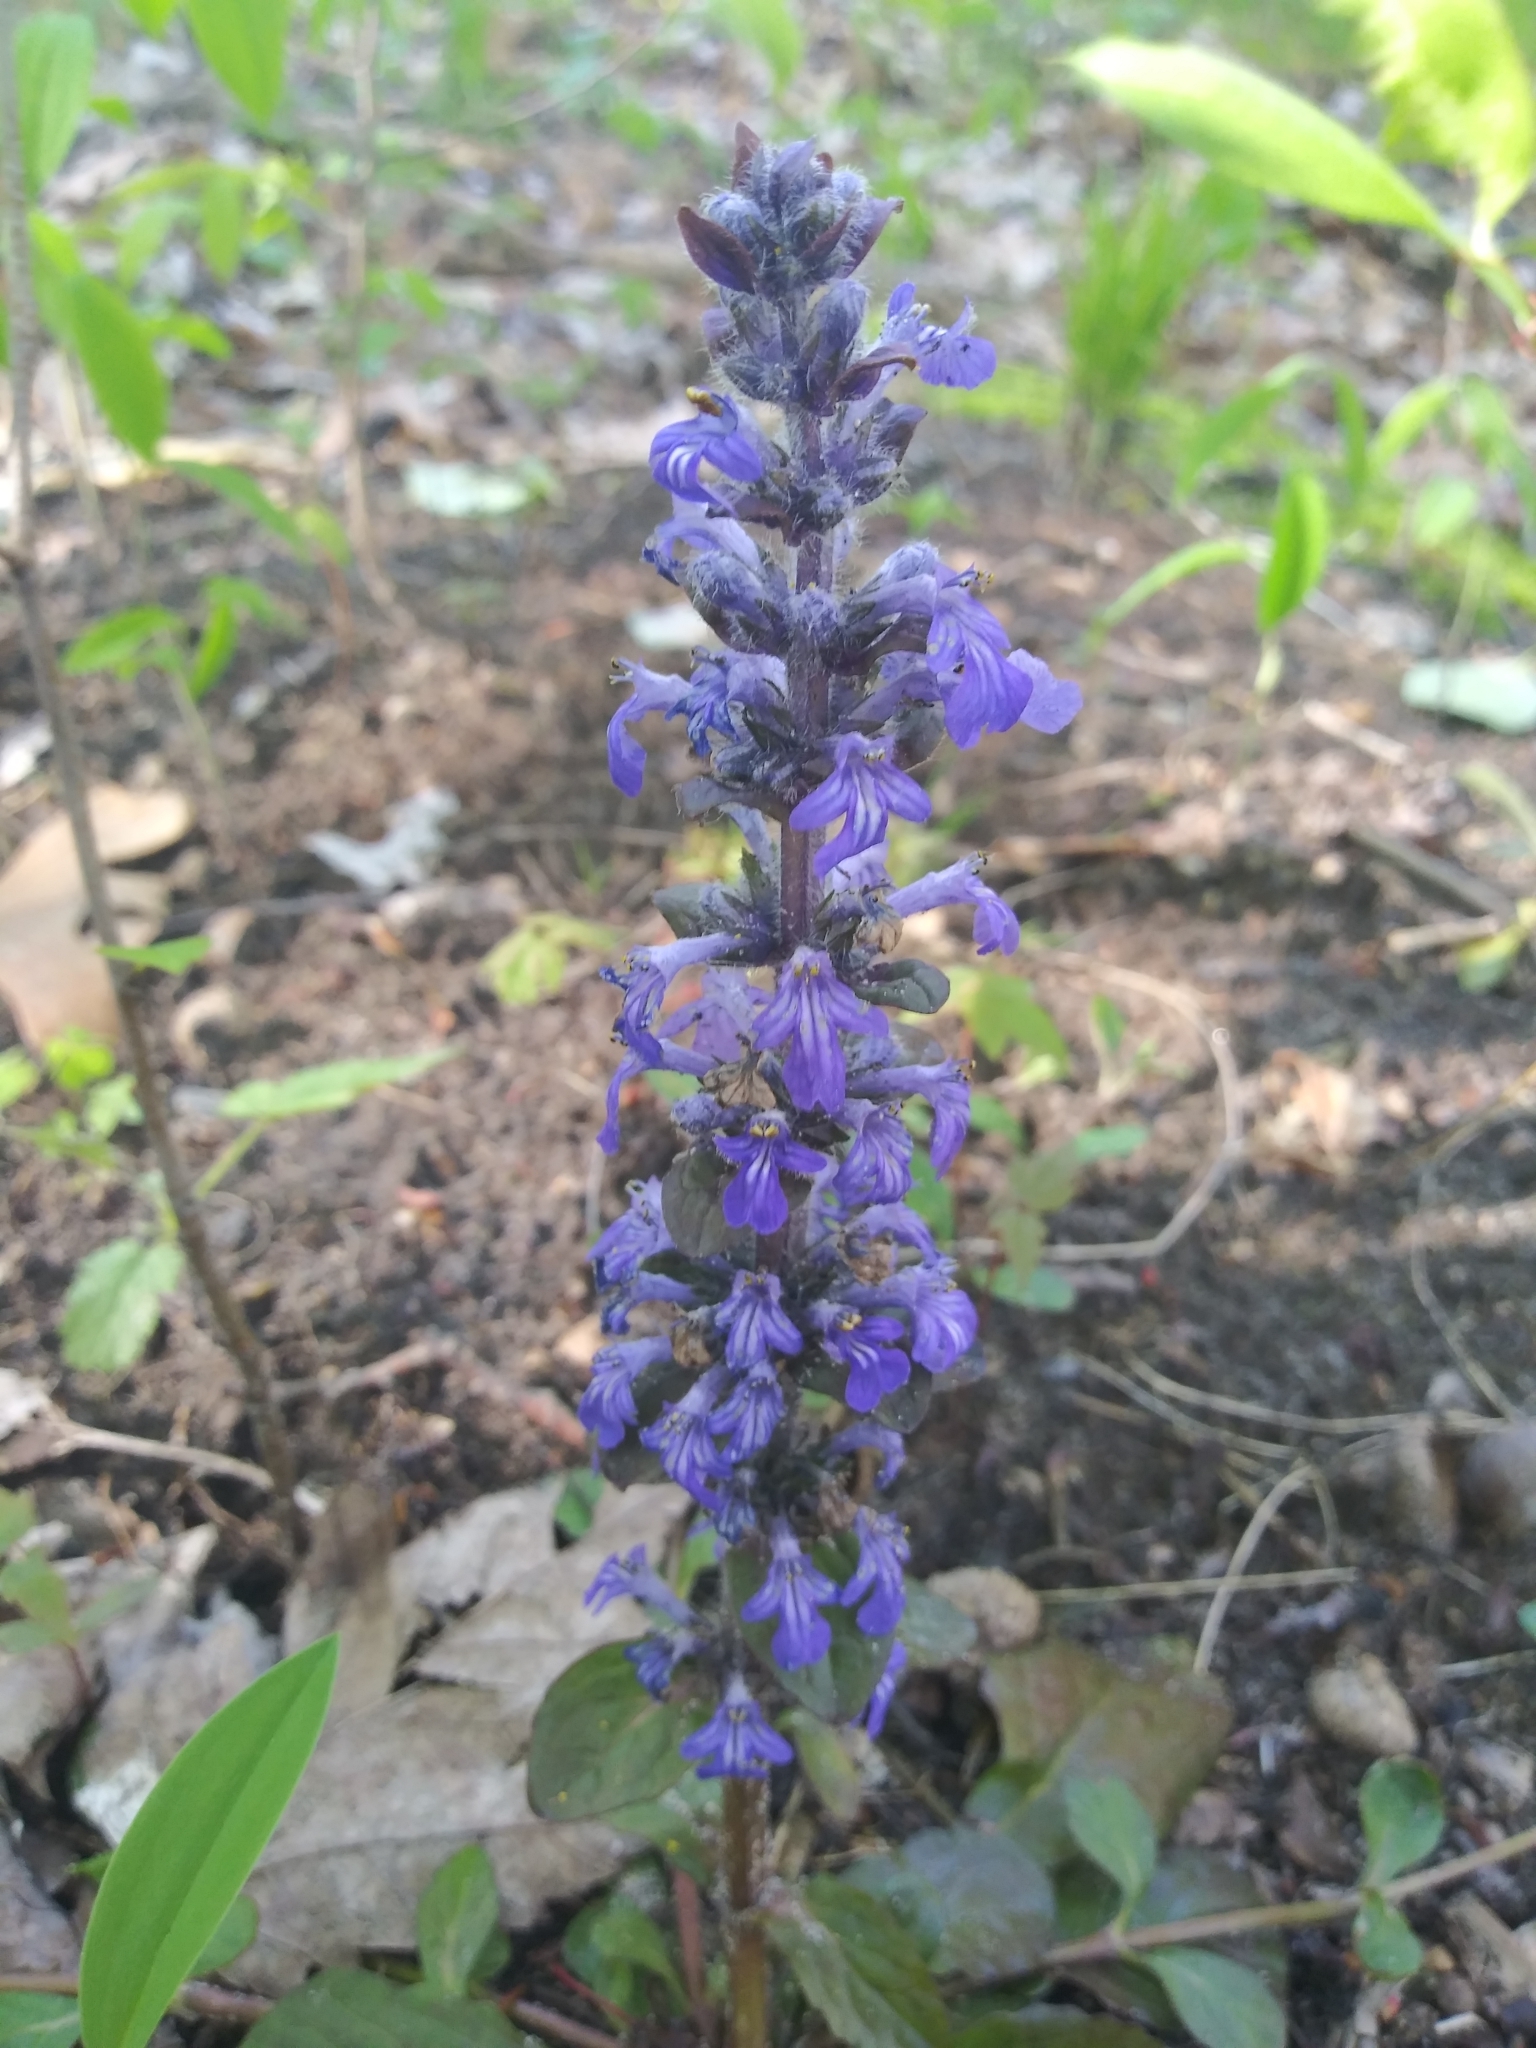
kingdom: Plantae
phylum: Tracheophyta
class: Magnoliopsida
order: Lamiales
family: Lamiaceae
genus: Ajuga
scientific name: Ajuga reptans
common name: Bugle
